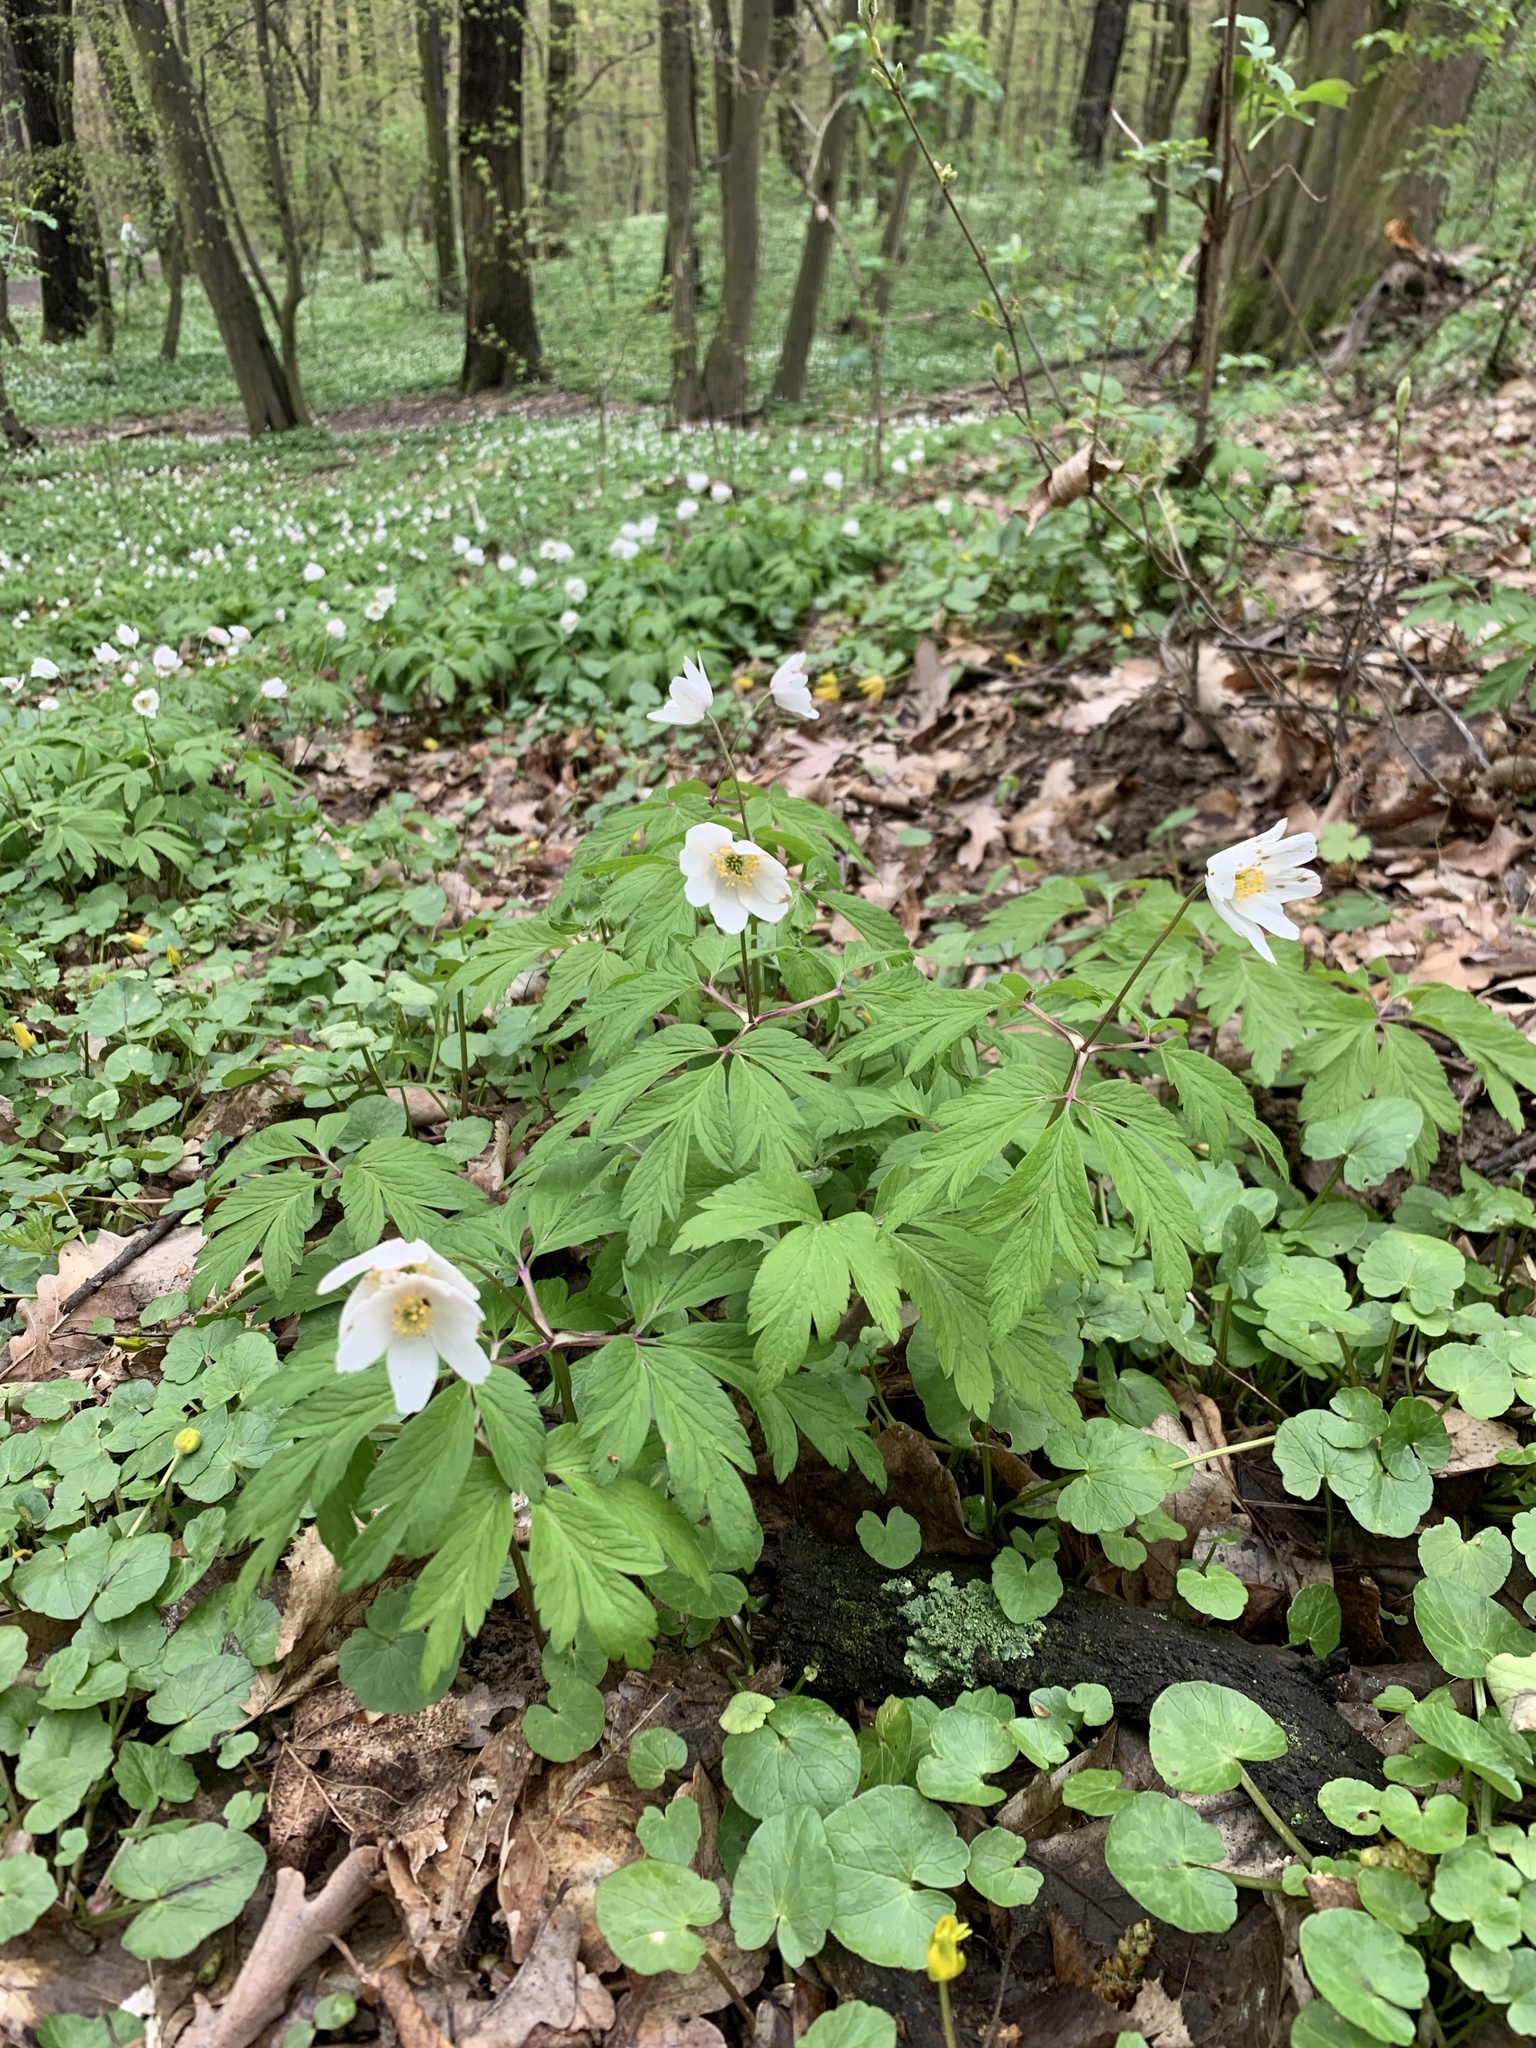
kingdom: Plantae
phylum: Tracheophyta
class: Magnoliopsida
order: Ranunculales
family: Ranunculaceae
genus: Anemone
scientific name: Anemone nemorosa
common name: Wood anemone
